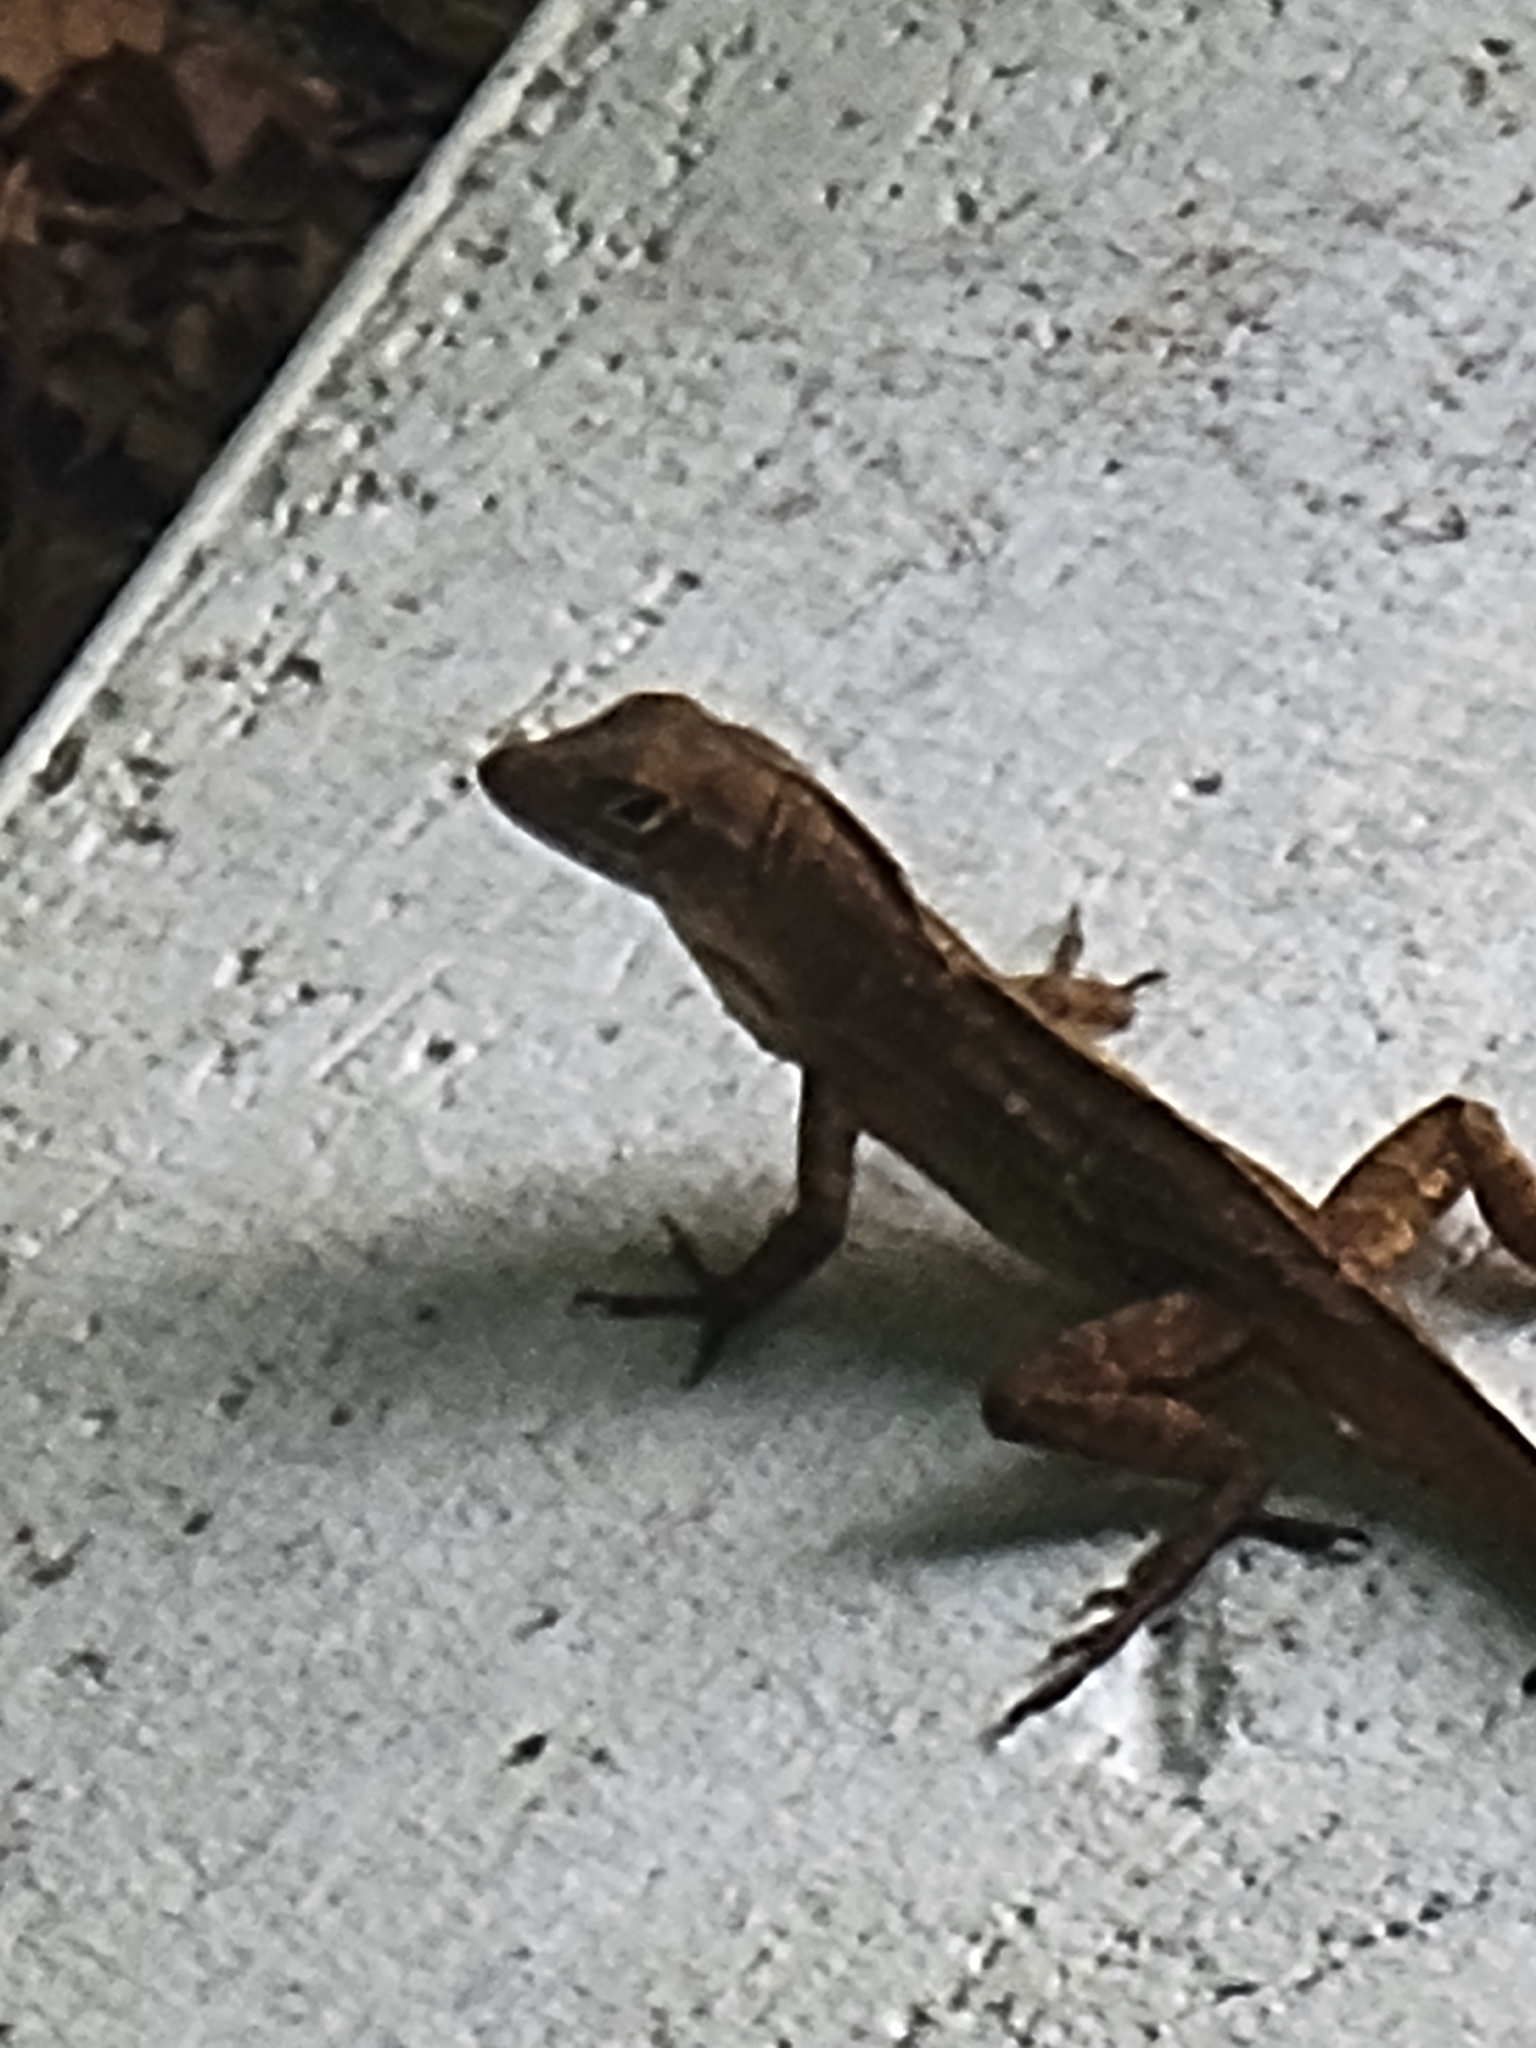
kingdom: Animalia
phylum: Chordata
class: Squamata
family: Dactyloidae
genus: Anolis
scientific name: Anolis sagrei
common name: Brown anole
